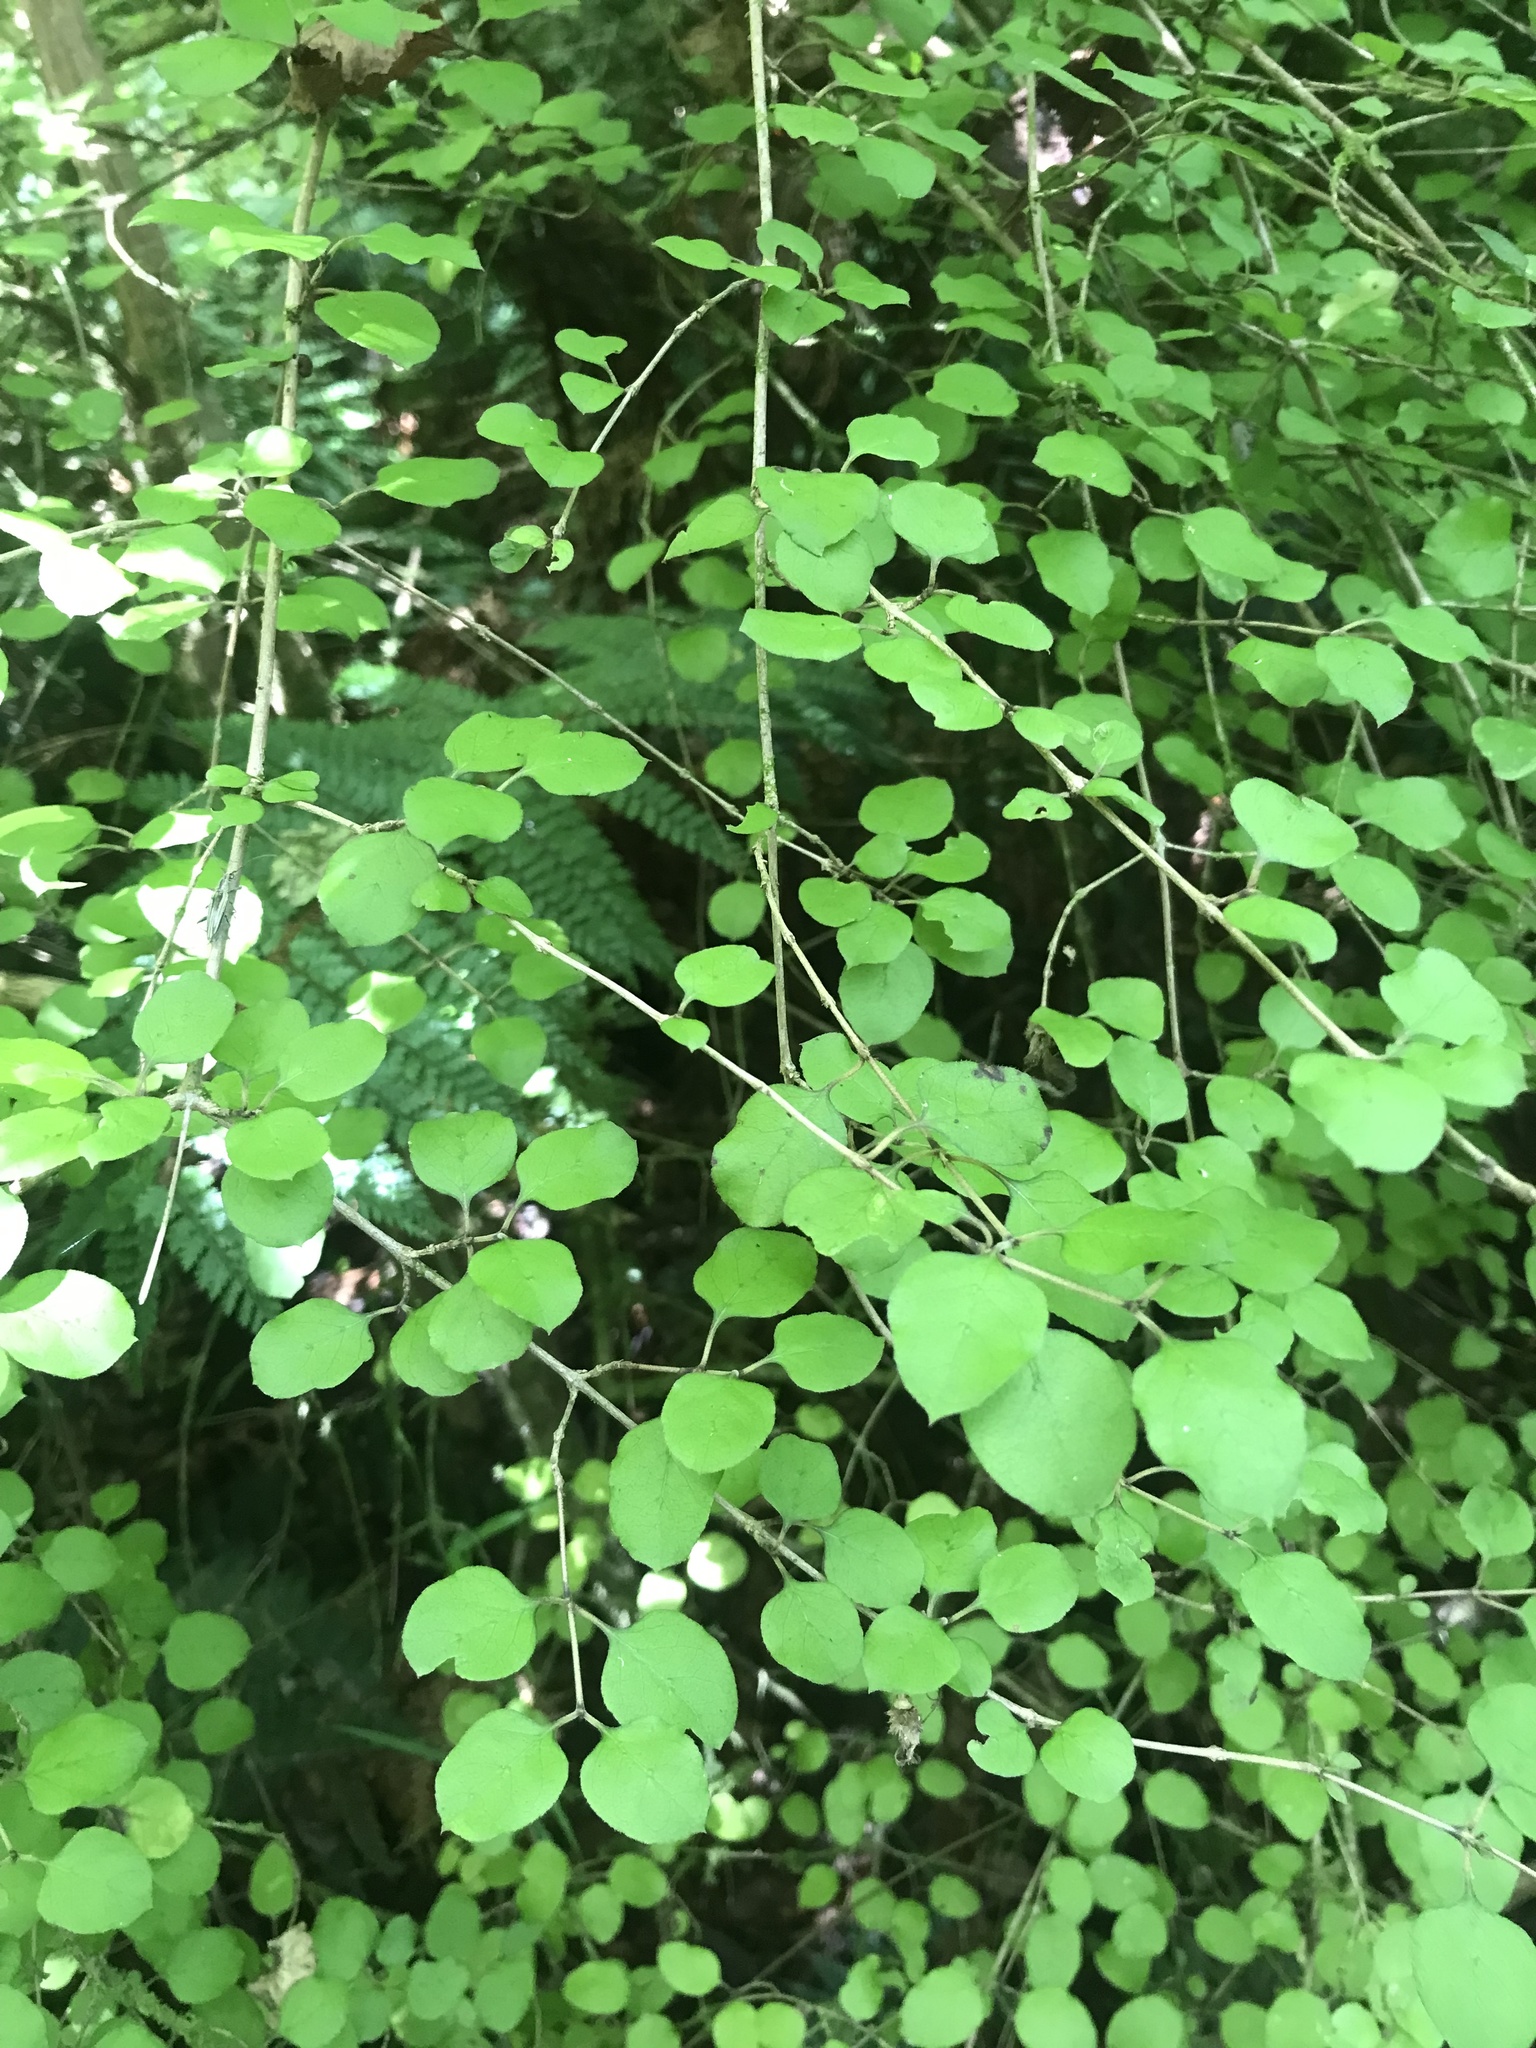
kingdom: Plantae
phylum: Tracheophyta
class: Magnoliopsida
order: Gentianales
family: Rubiaceae
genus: Coprosma
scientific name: Coprosma rotundifolia
